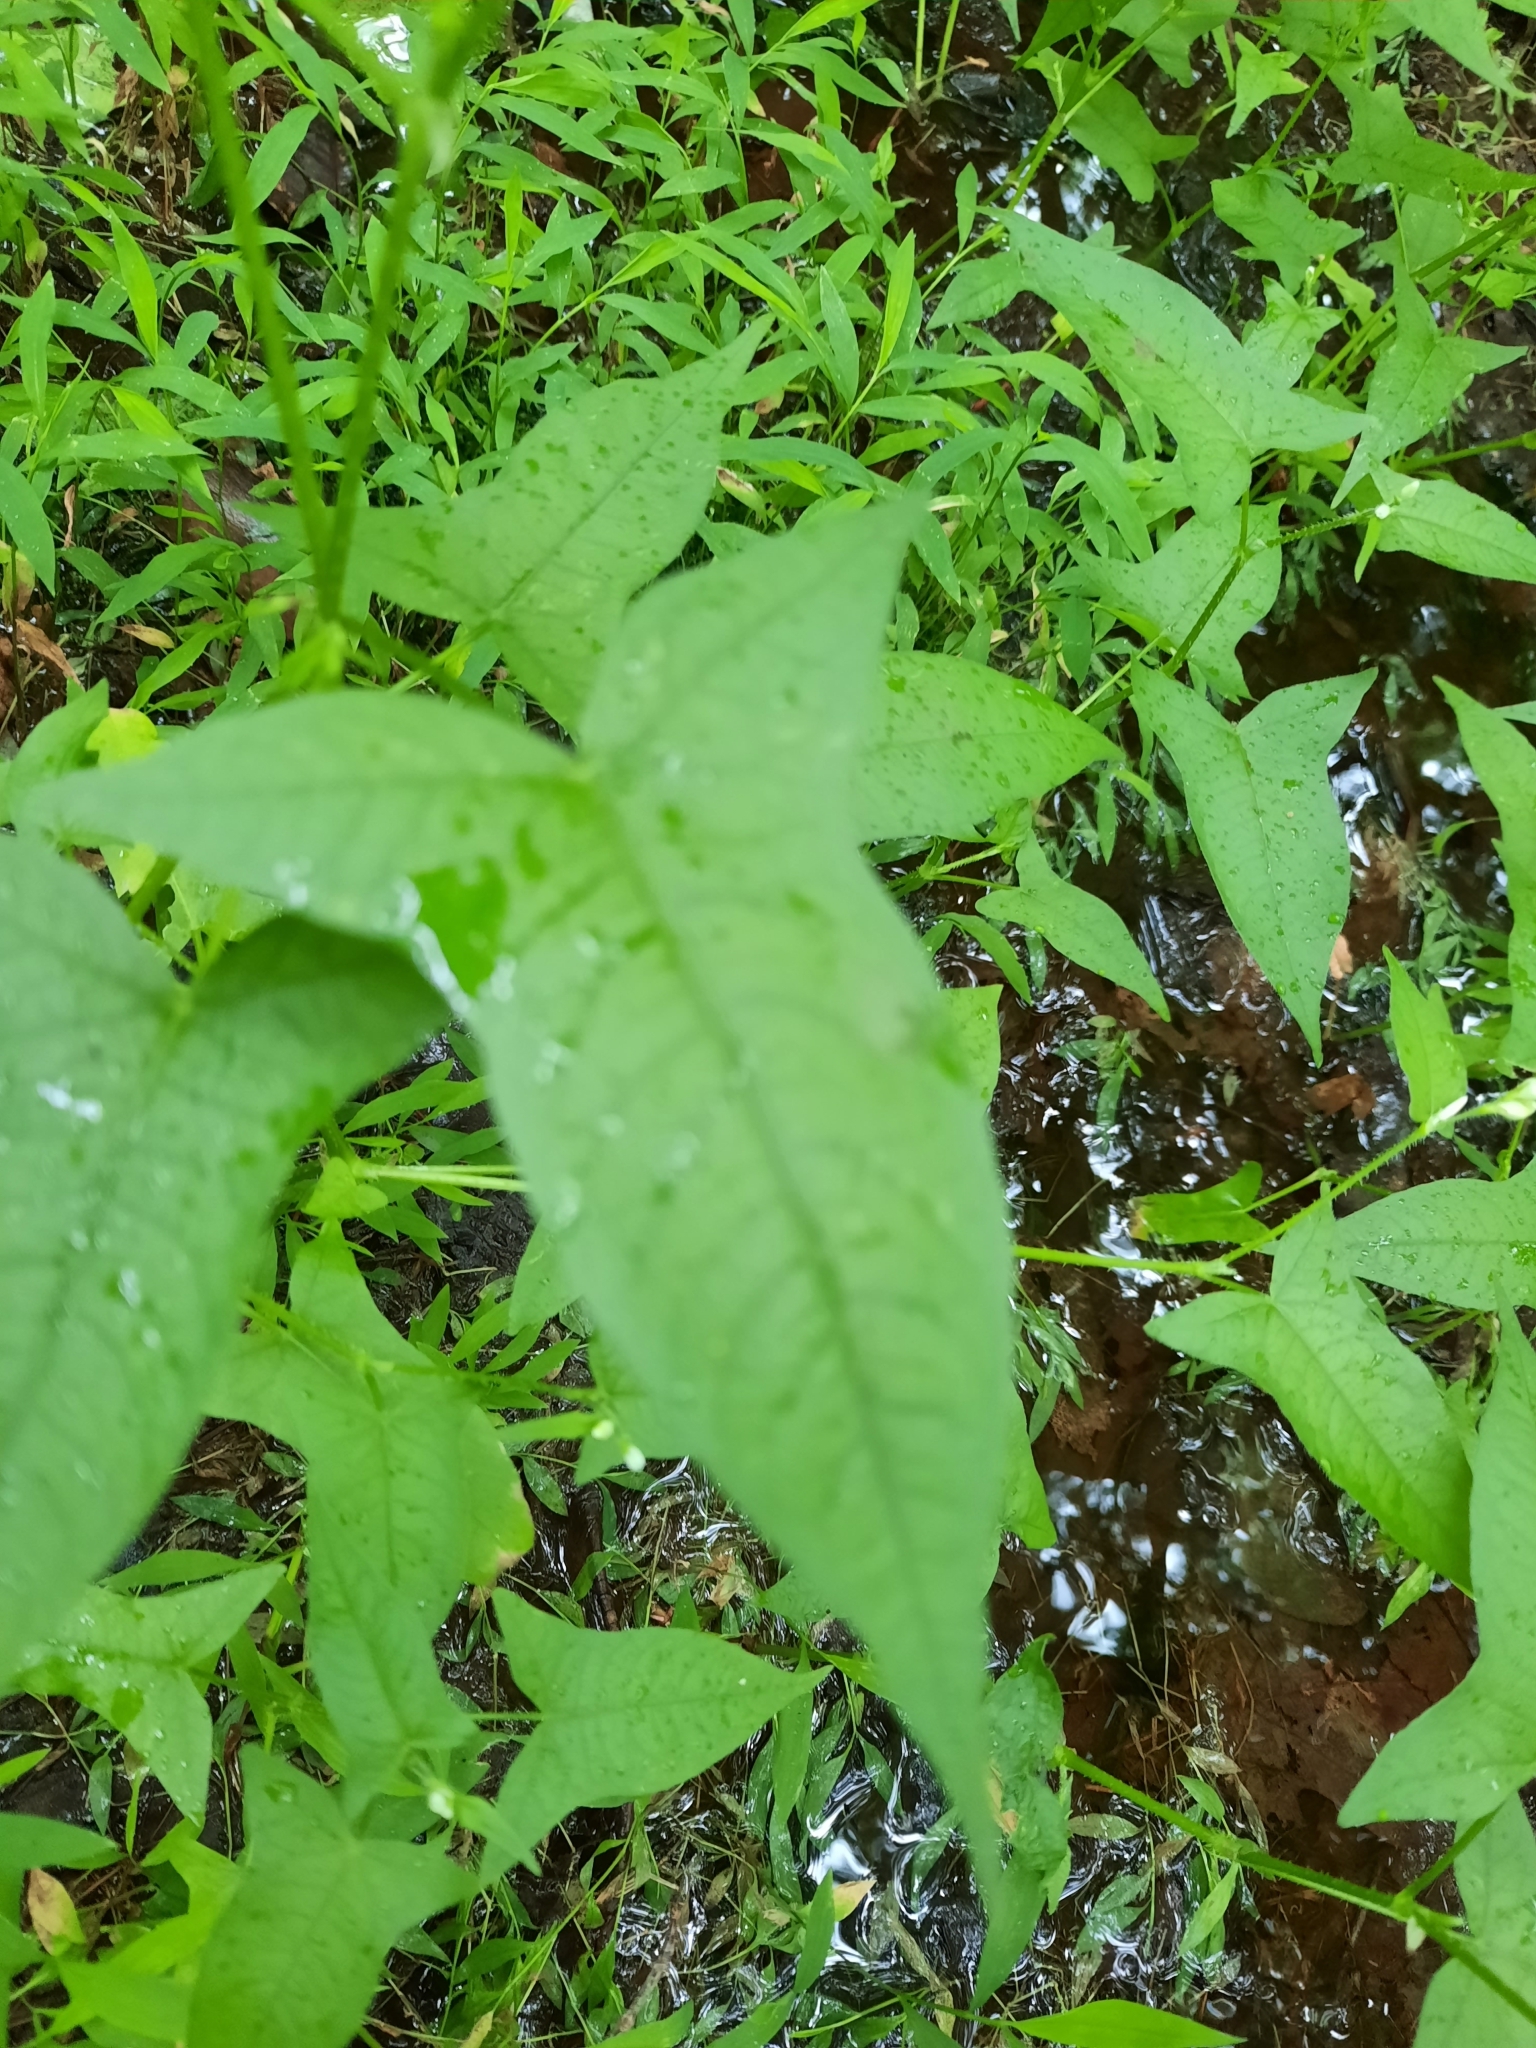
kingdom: Plantae
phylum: Tracheophyta
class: Magnoliopsida
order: Caryophyllales
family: Polygonaceae
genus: Persicaria
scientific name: Persicaria arifolia
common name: Halberd-leaved tear-thumb
